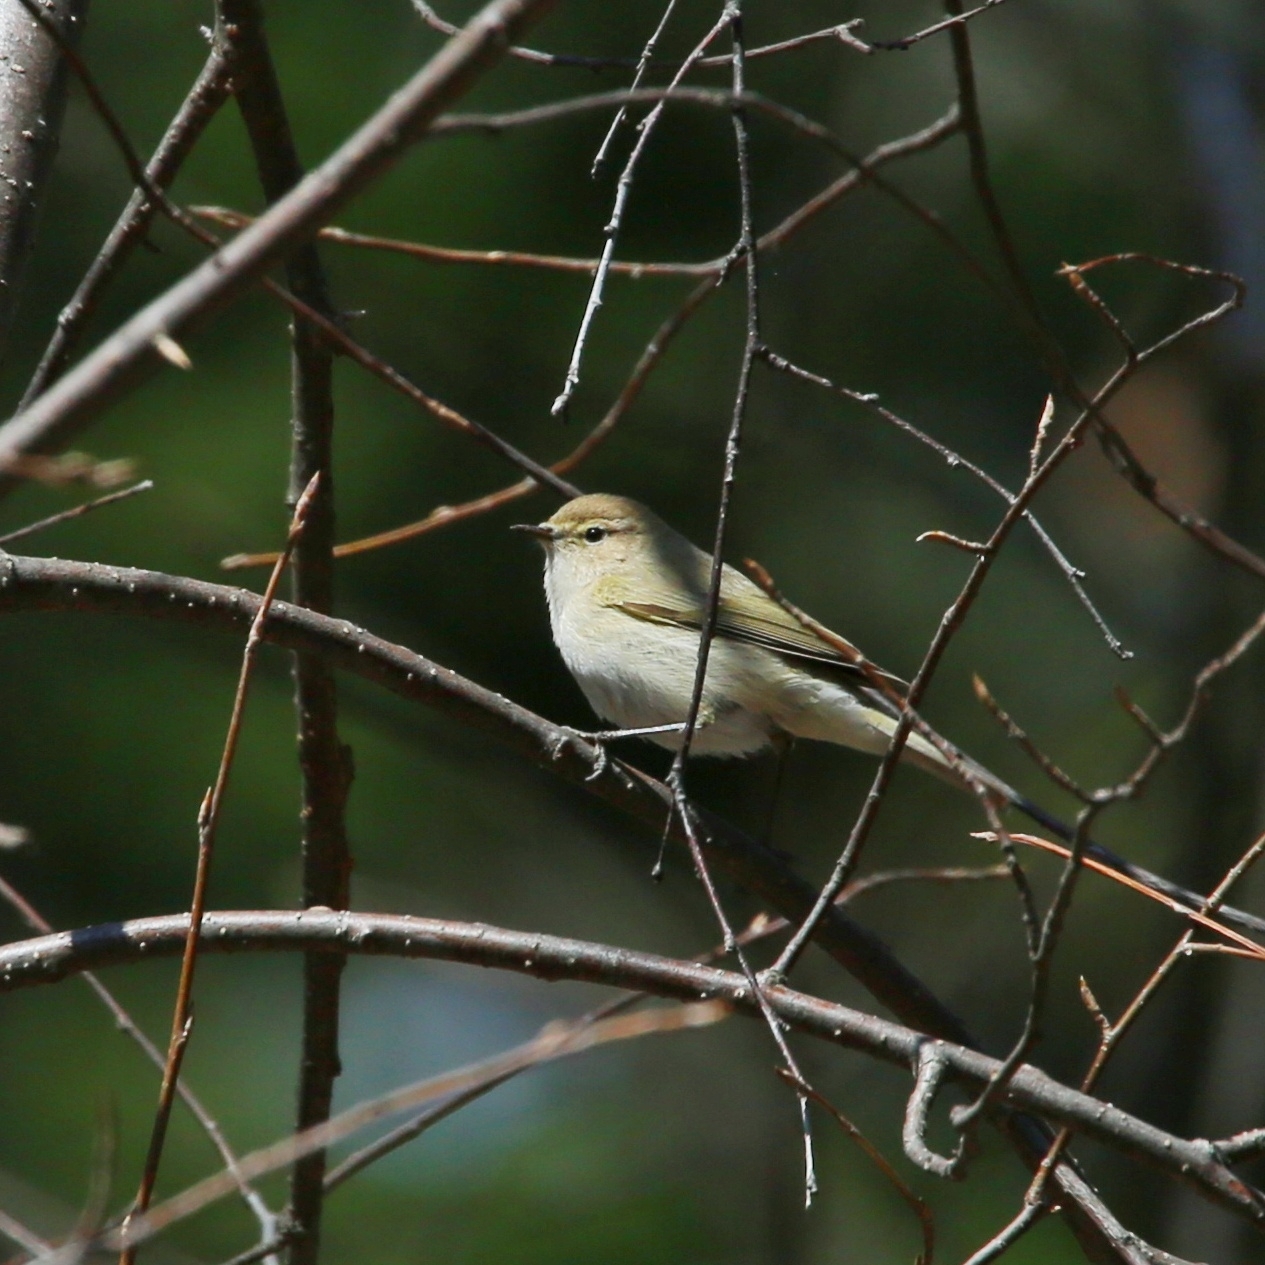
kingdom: Animalia
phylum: Chordata
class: Aves
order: Passeriformes
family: Phylloscopidae
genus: Phylloscopus
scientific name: Phylloscopus collybita
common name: Common chiffchaff
